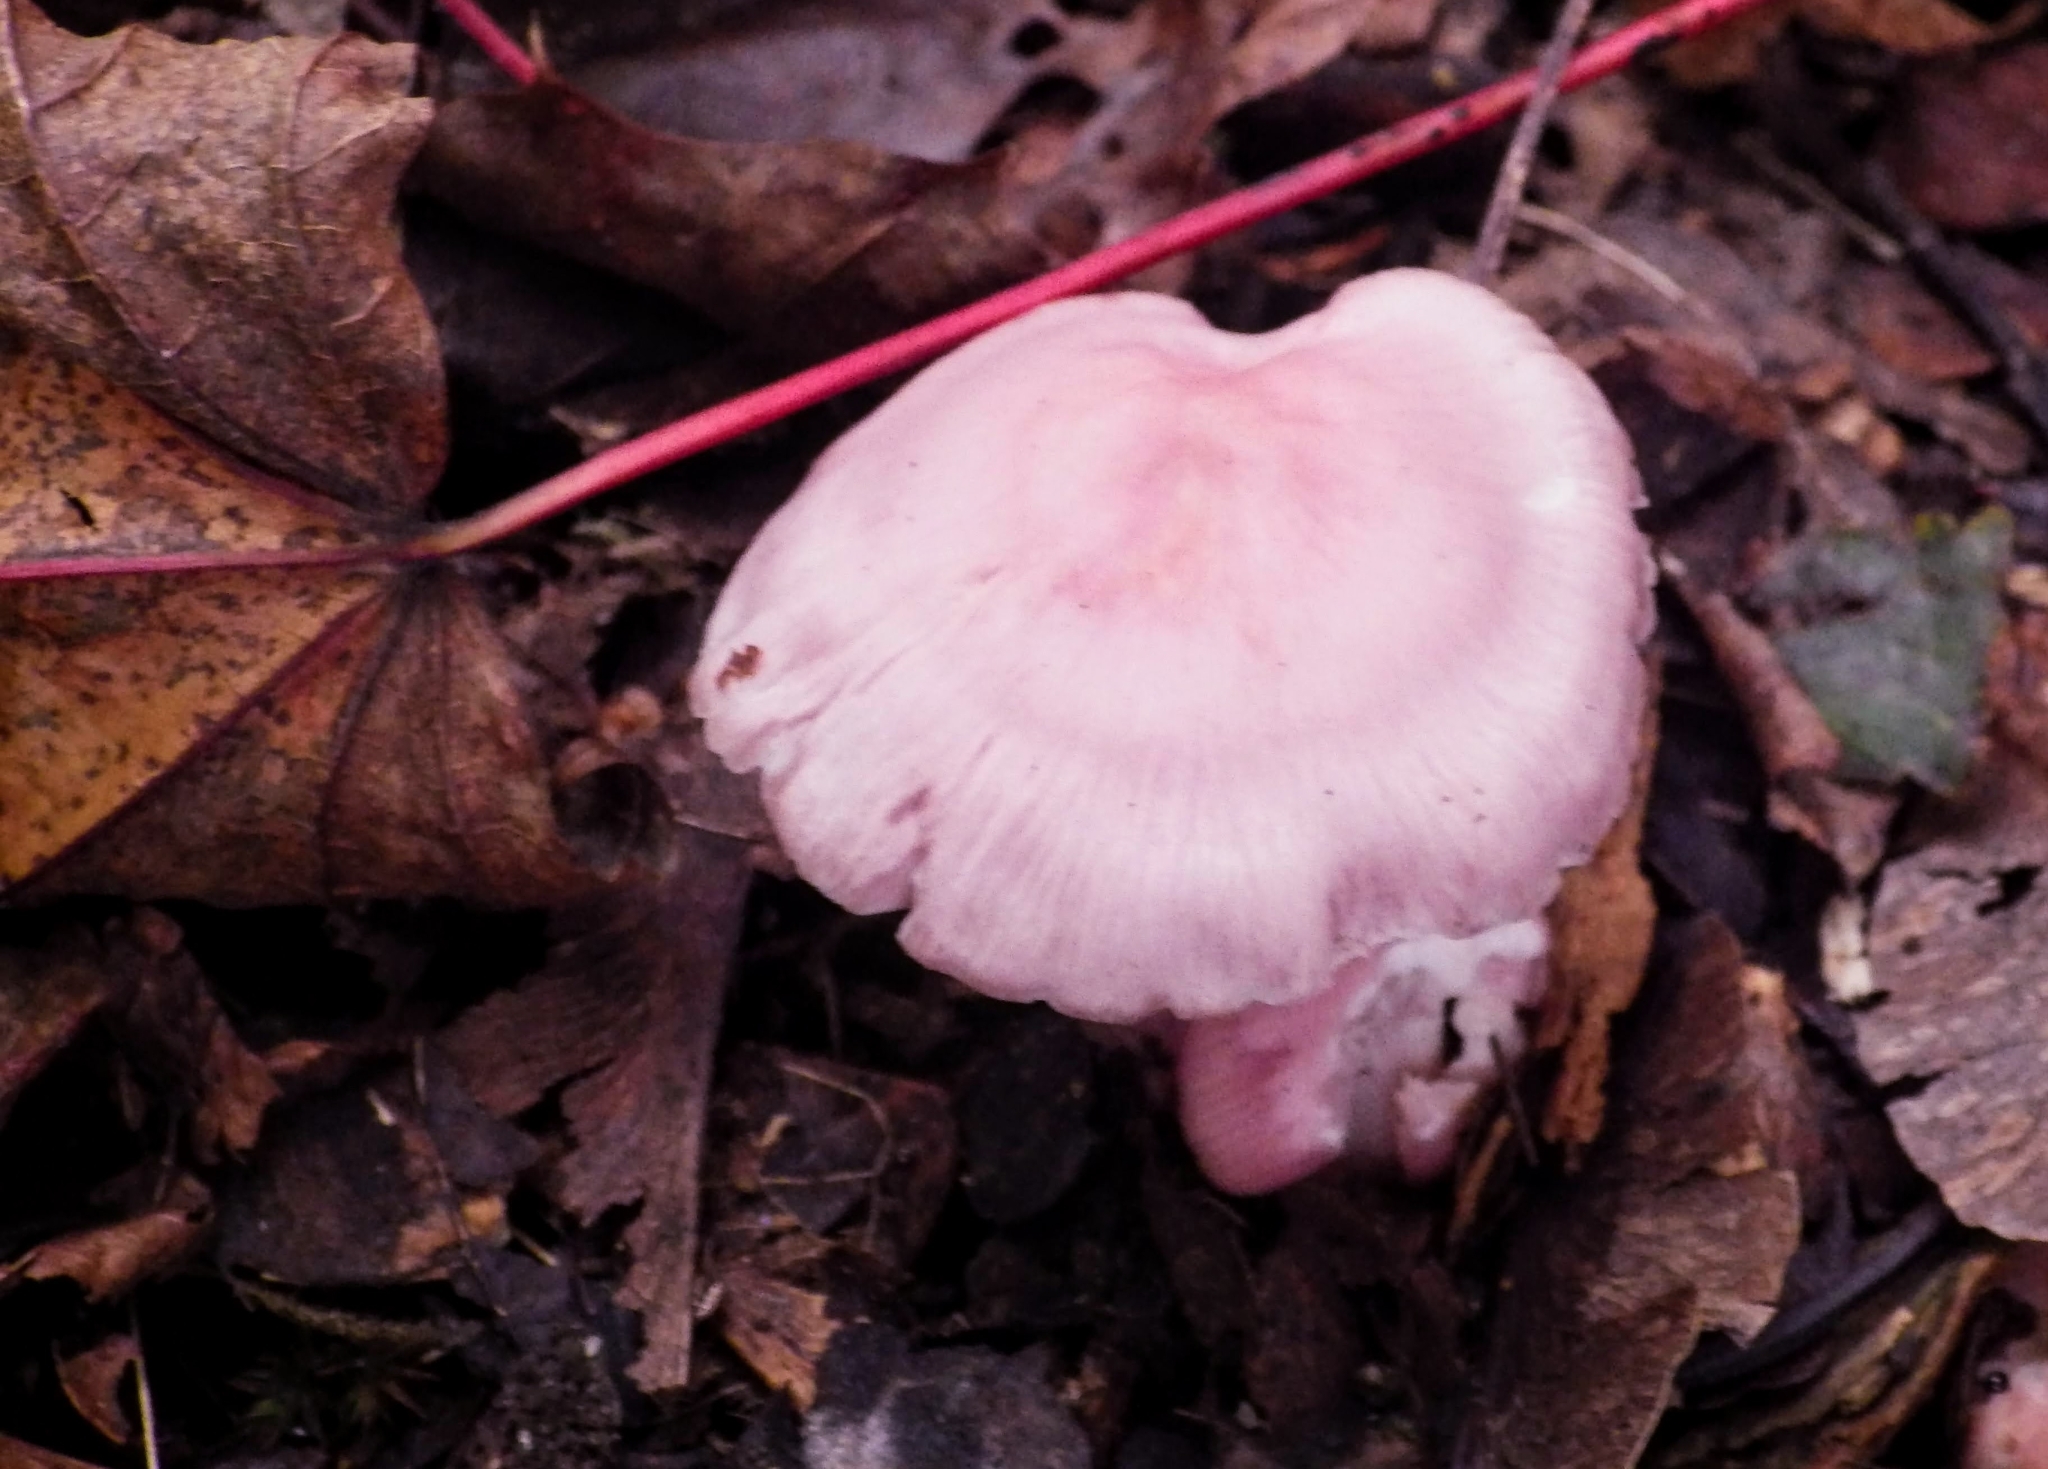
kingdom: Fungi
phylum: Basidiomycota
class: Agaricomycetes
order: Agaricales
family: Mycenaceae
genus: Mycena
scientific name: Mycena rosea
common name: Rosy bonnet
